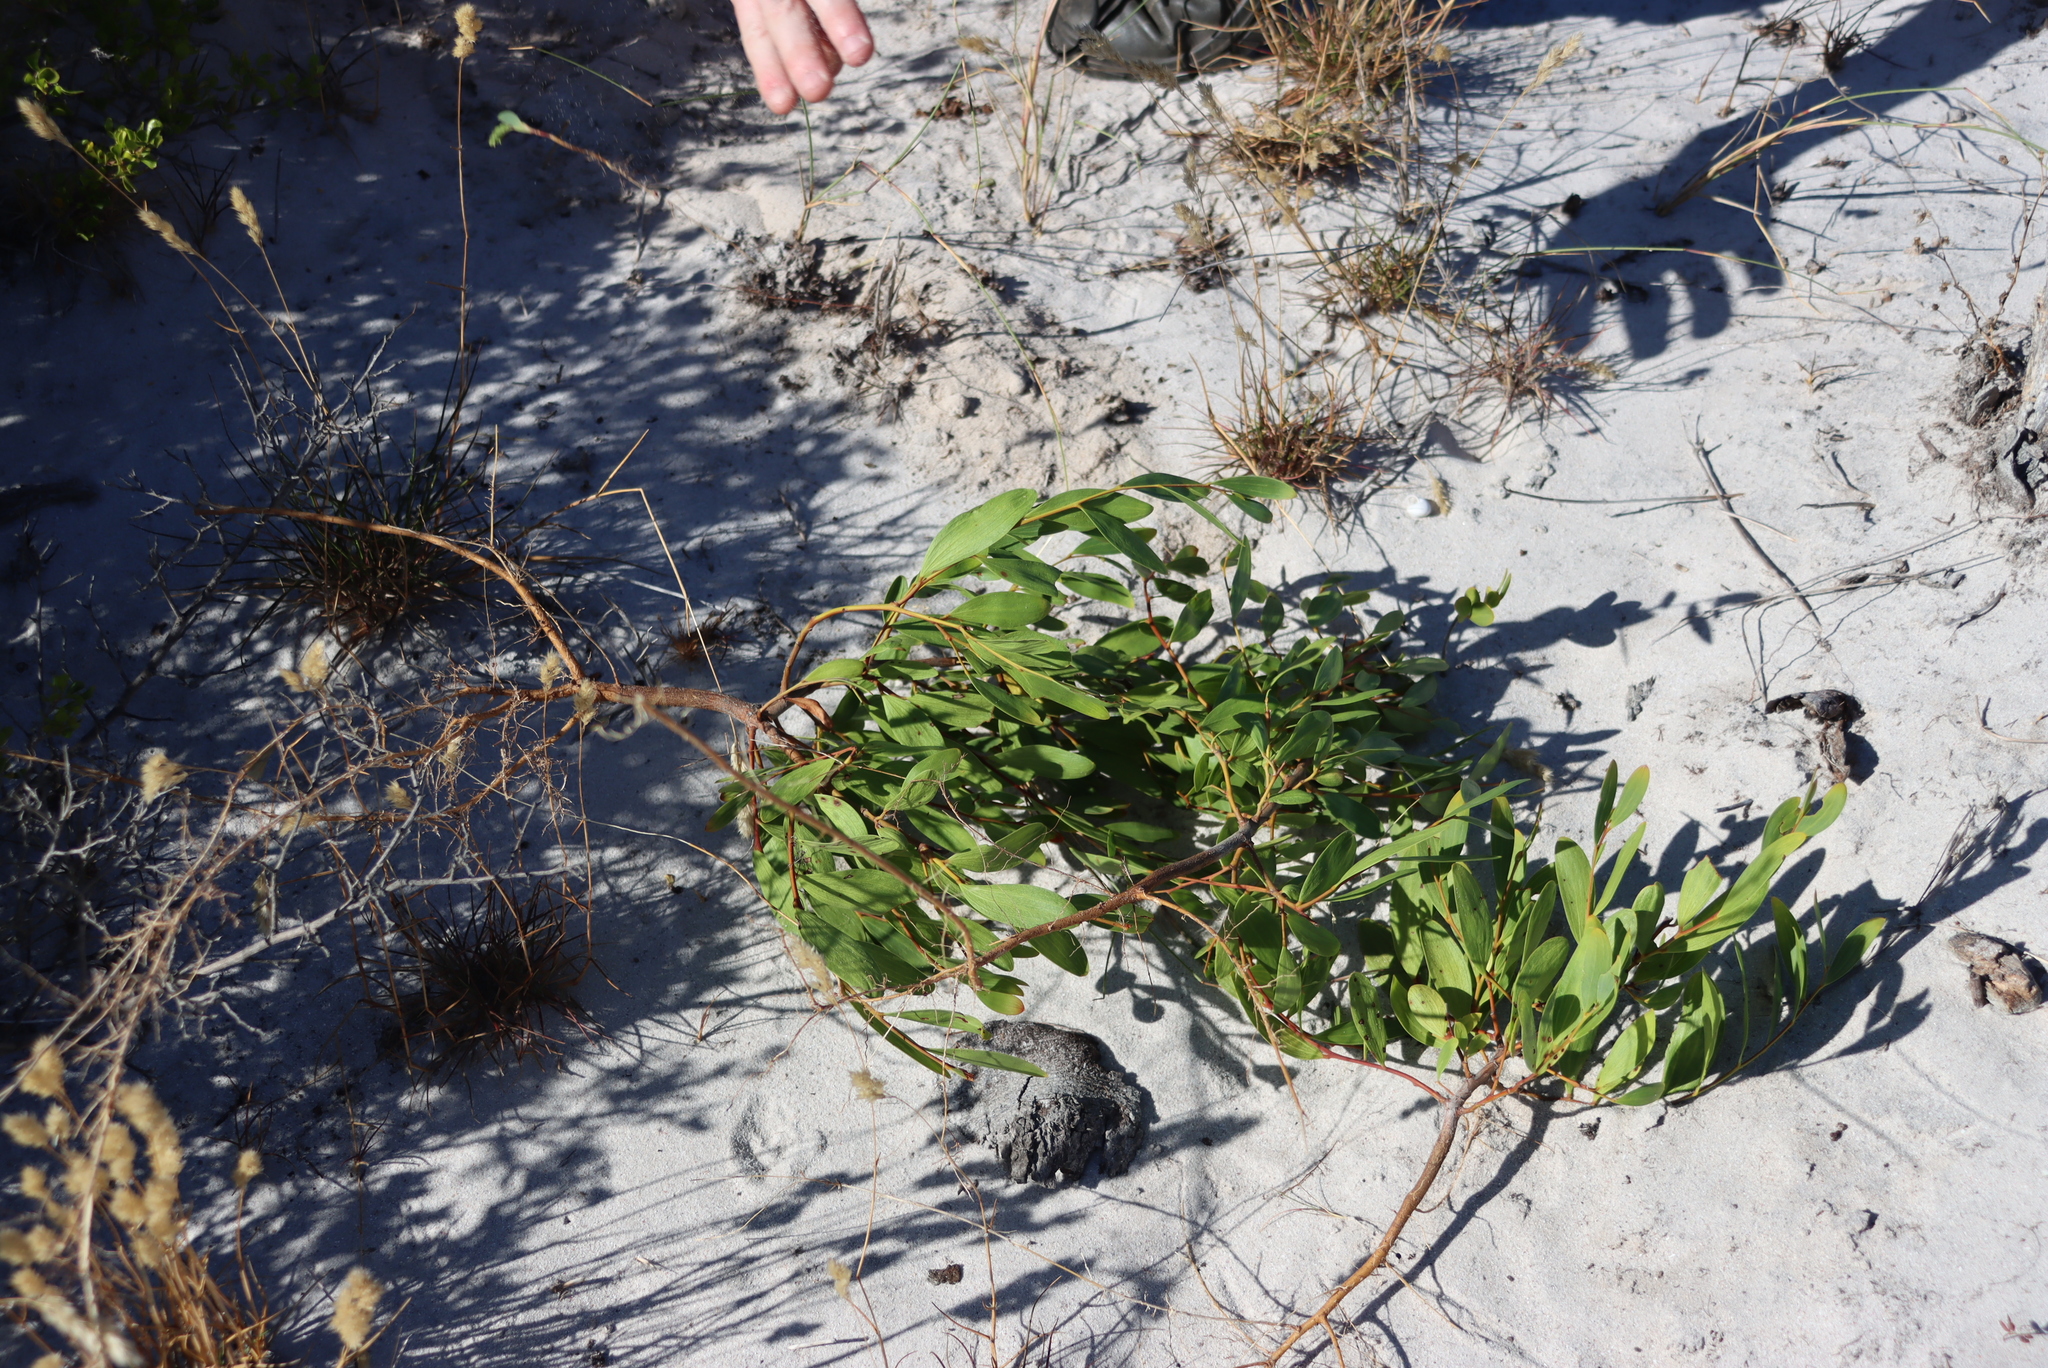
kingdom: Plantae
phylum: Tracheophyta
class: Magnoliopsida
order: Fabales
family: Fabaceae
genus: Acacia
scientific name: Acacia cyclops
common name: Coastal wattle
